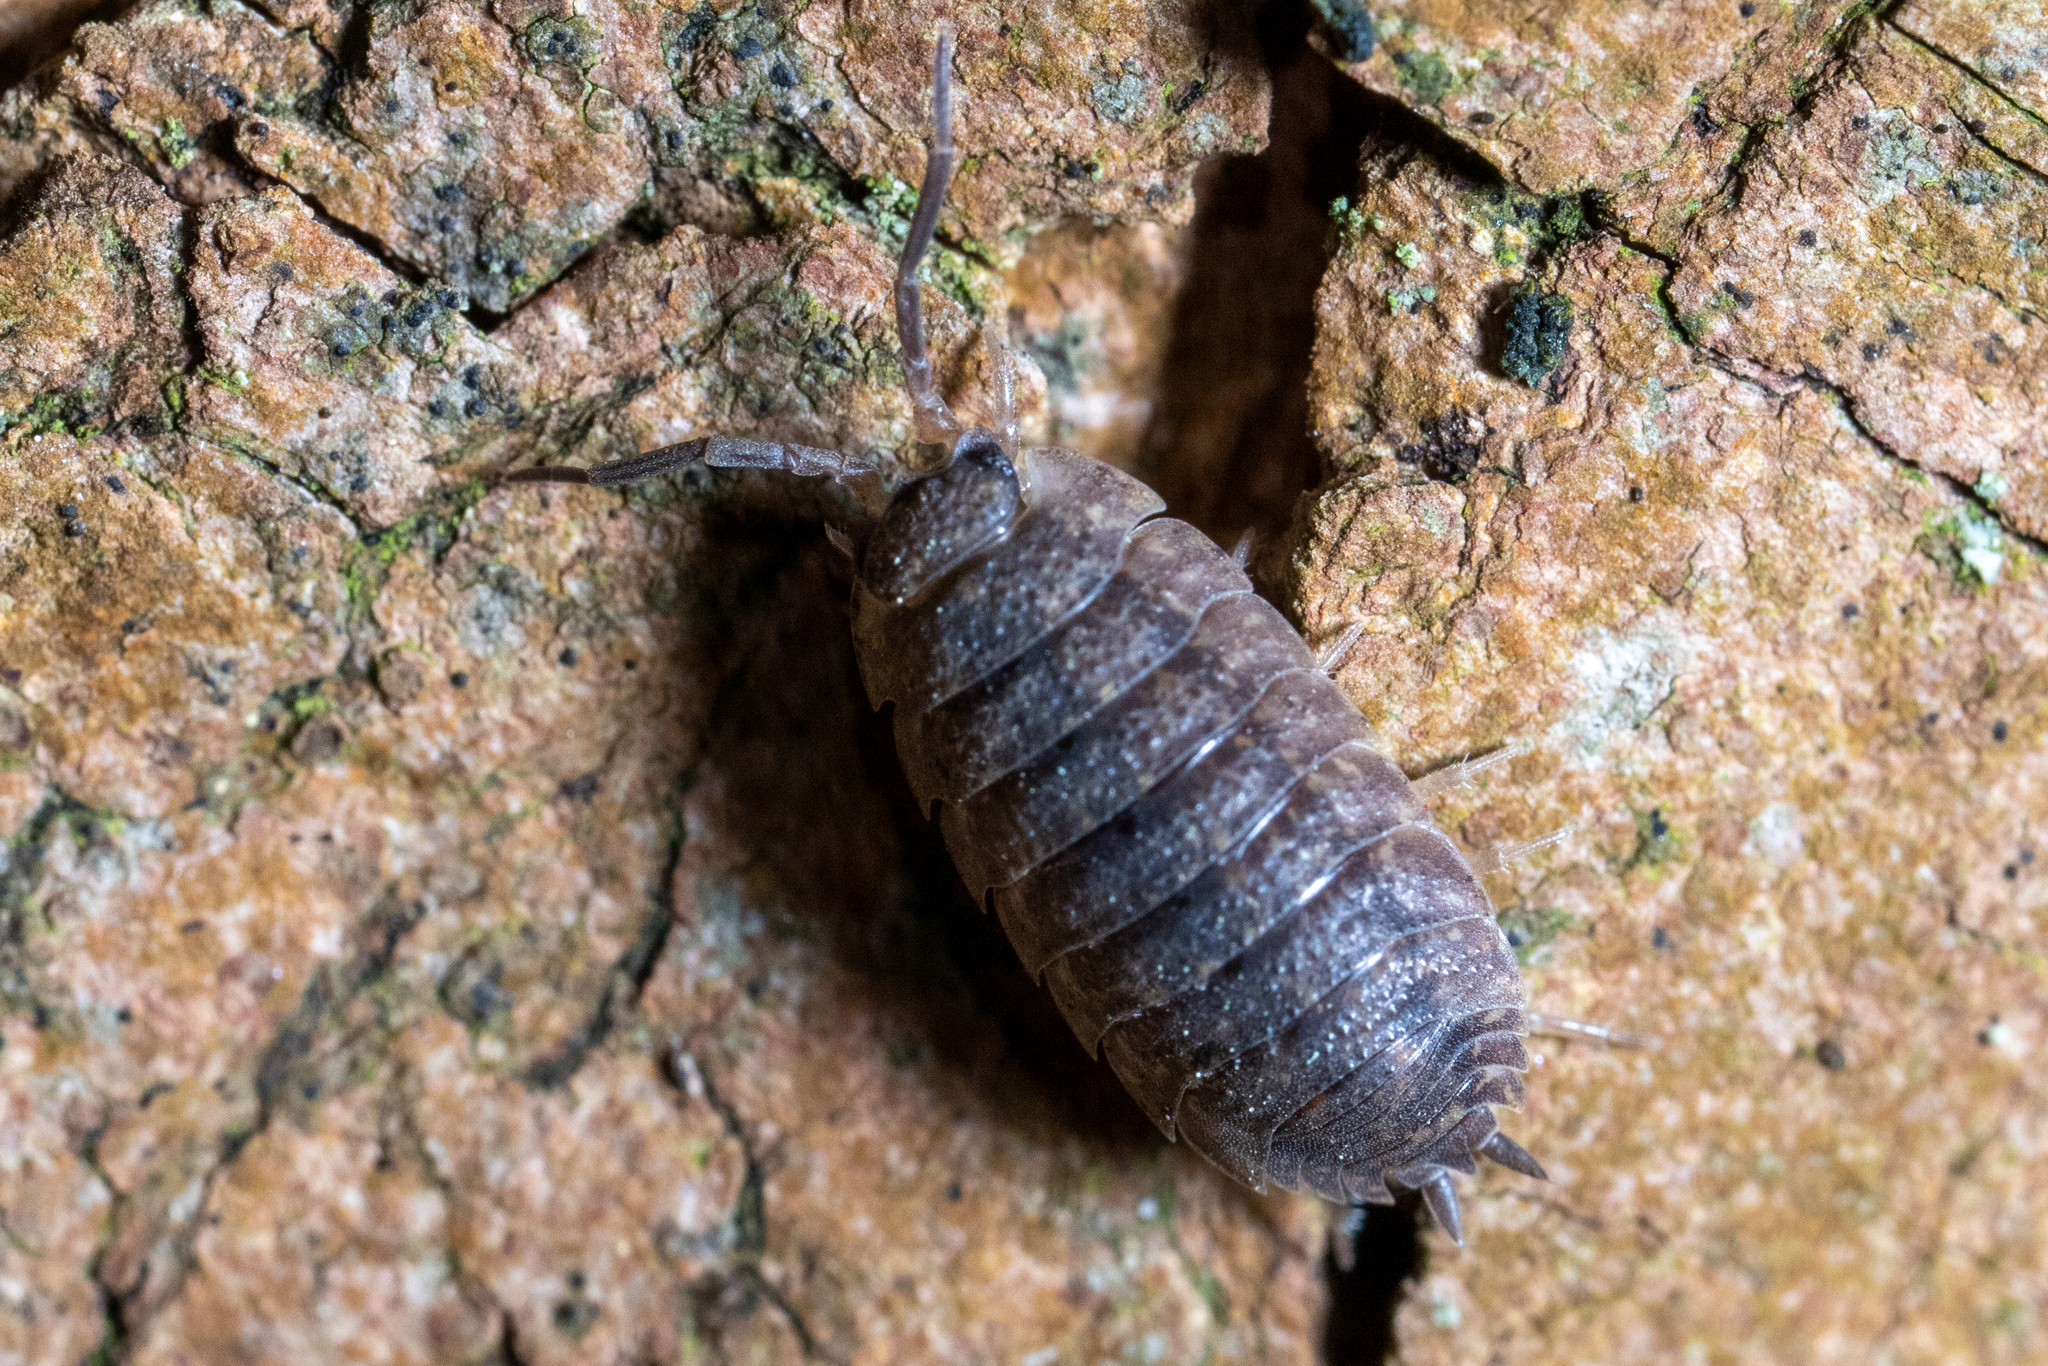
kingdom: Animalia
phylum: Arthropoda
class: Malacostraca
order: Isopoda
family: Porcellionidae
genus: Porcellio
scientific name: Porcellio scaber
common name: Common rough woodlouse
